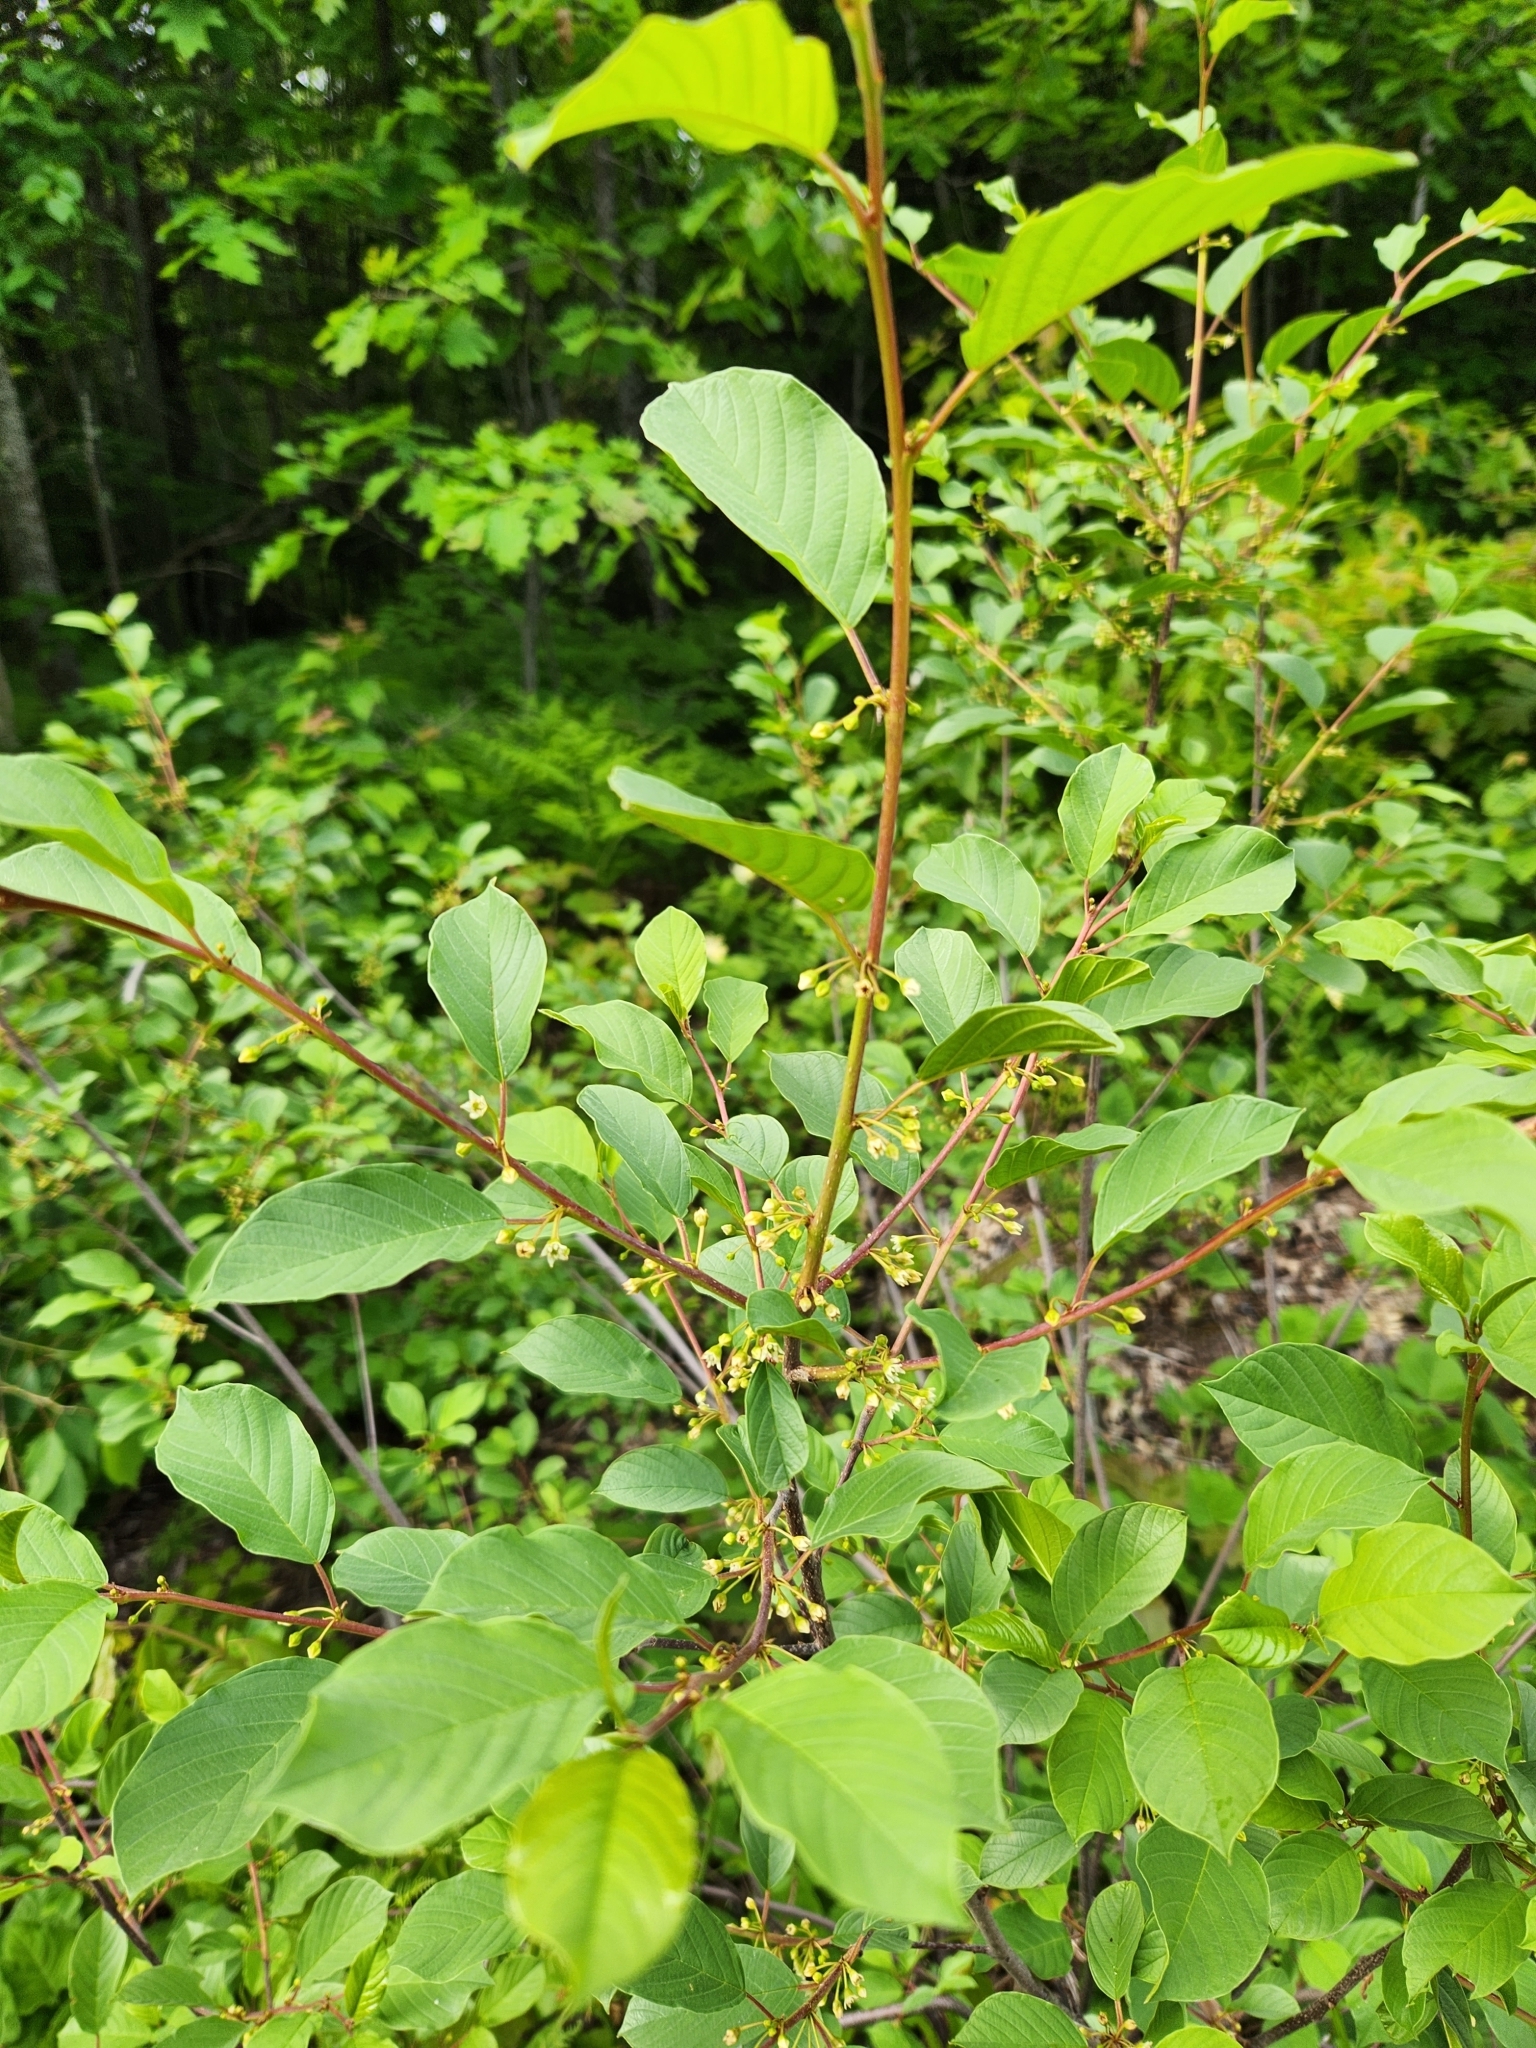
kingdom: Plantae
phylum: Tracheophyta
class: Magnoliopsida
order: Rosales
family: Rhamnaceae
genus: Frangula
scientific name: Frangula alnus
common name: Alder buckthorn
